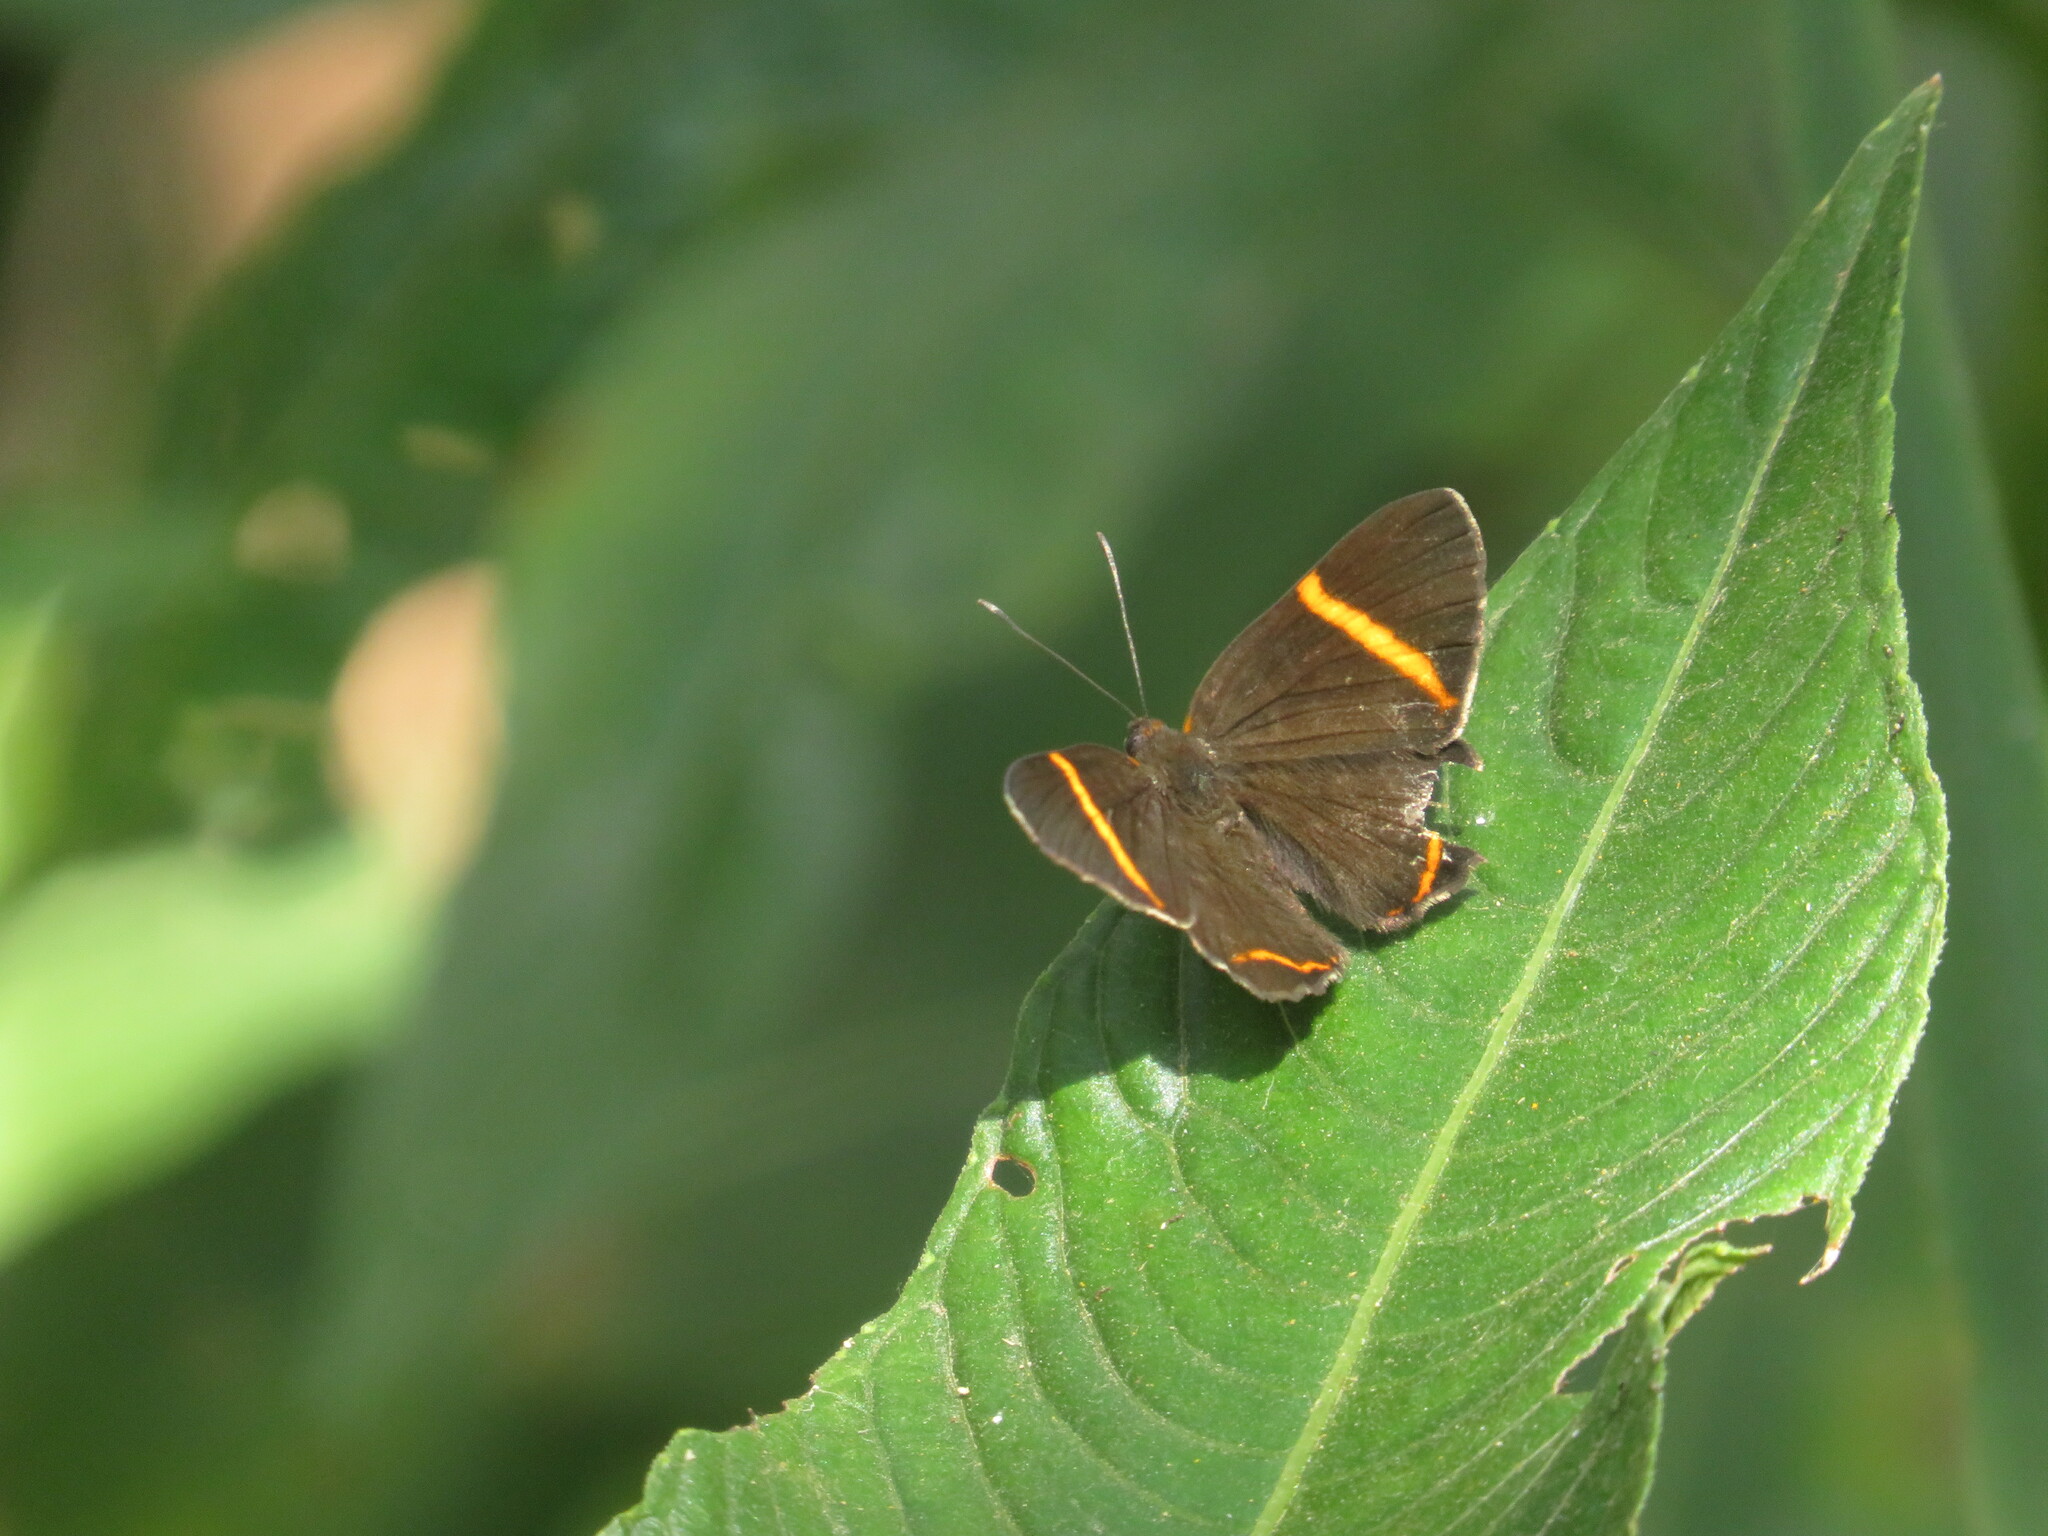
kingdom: Animalia
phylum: Arthropoda
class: Insecta
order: Lepidoptera
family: Riodinidae
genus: Riodina
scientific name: Riodina lysippoides
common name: Little dancer metalmark
